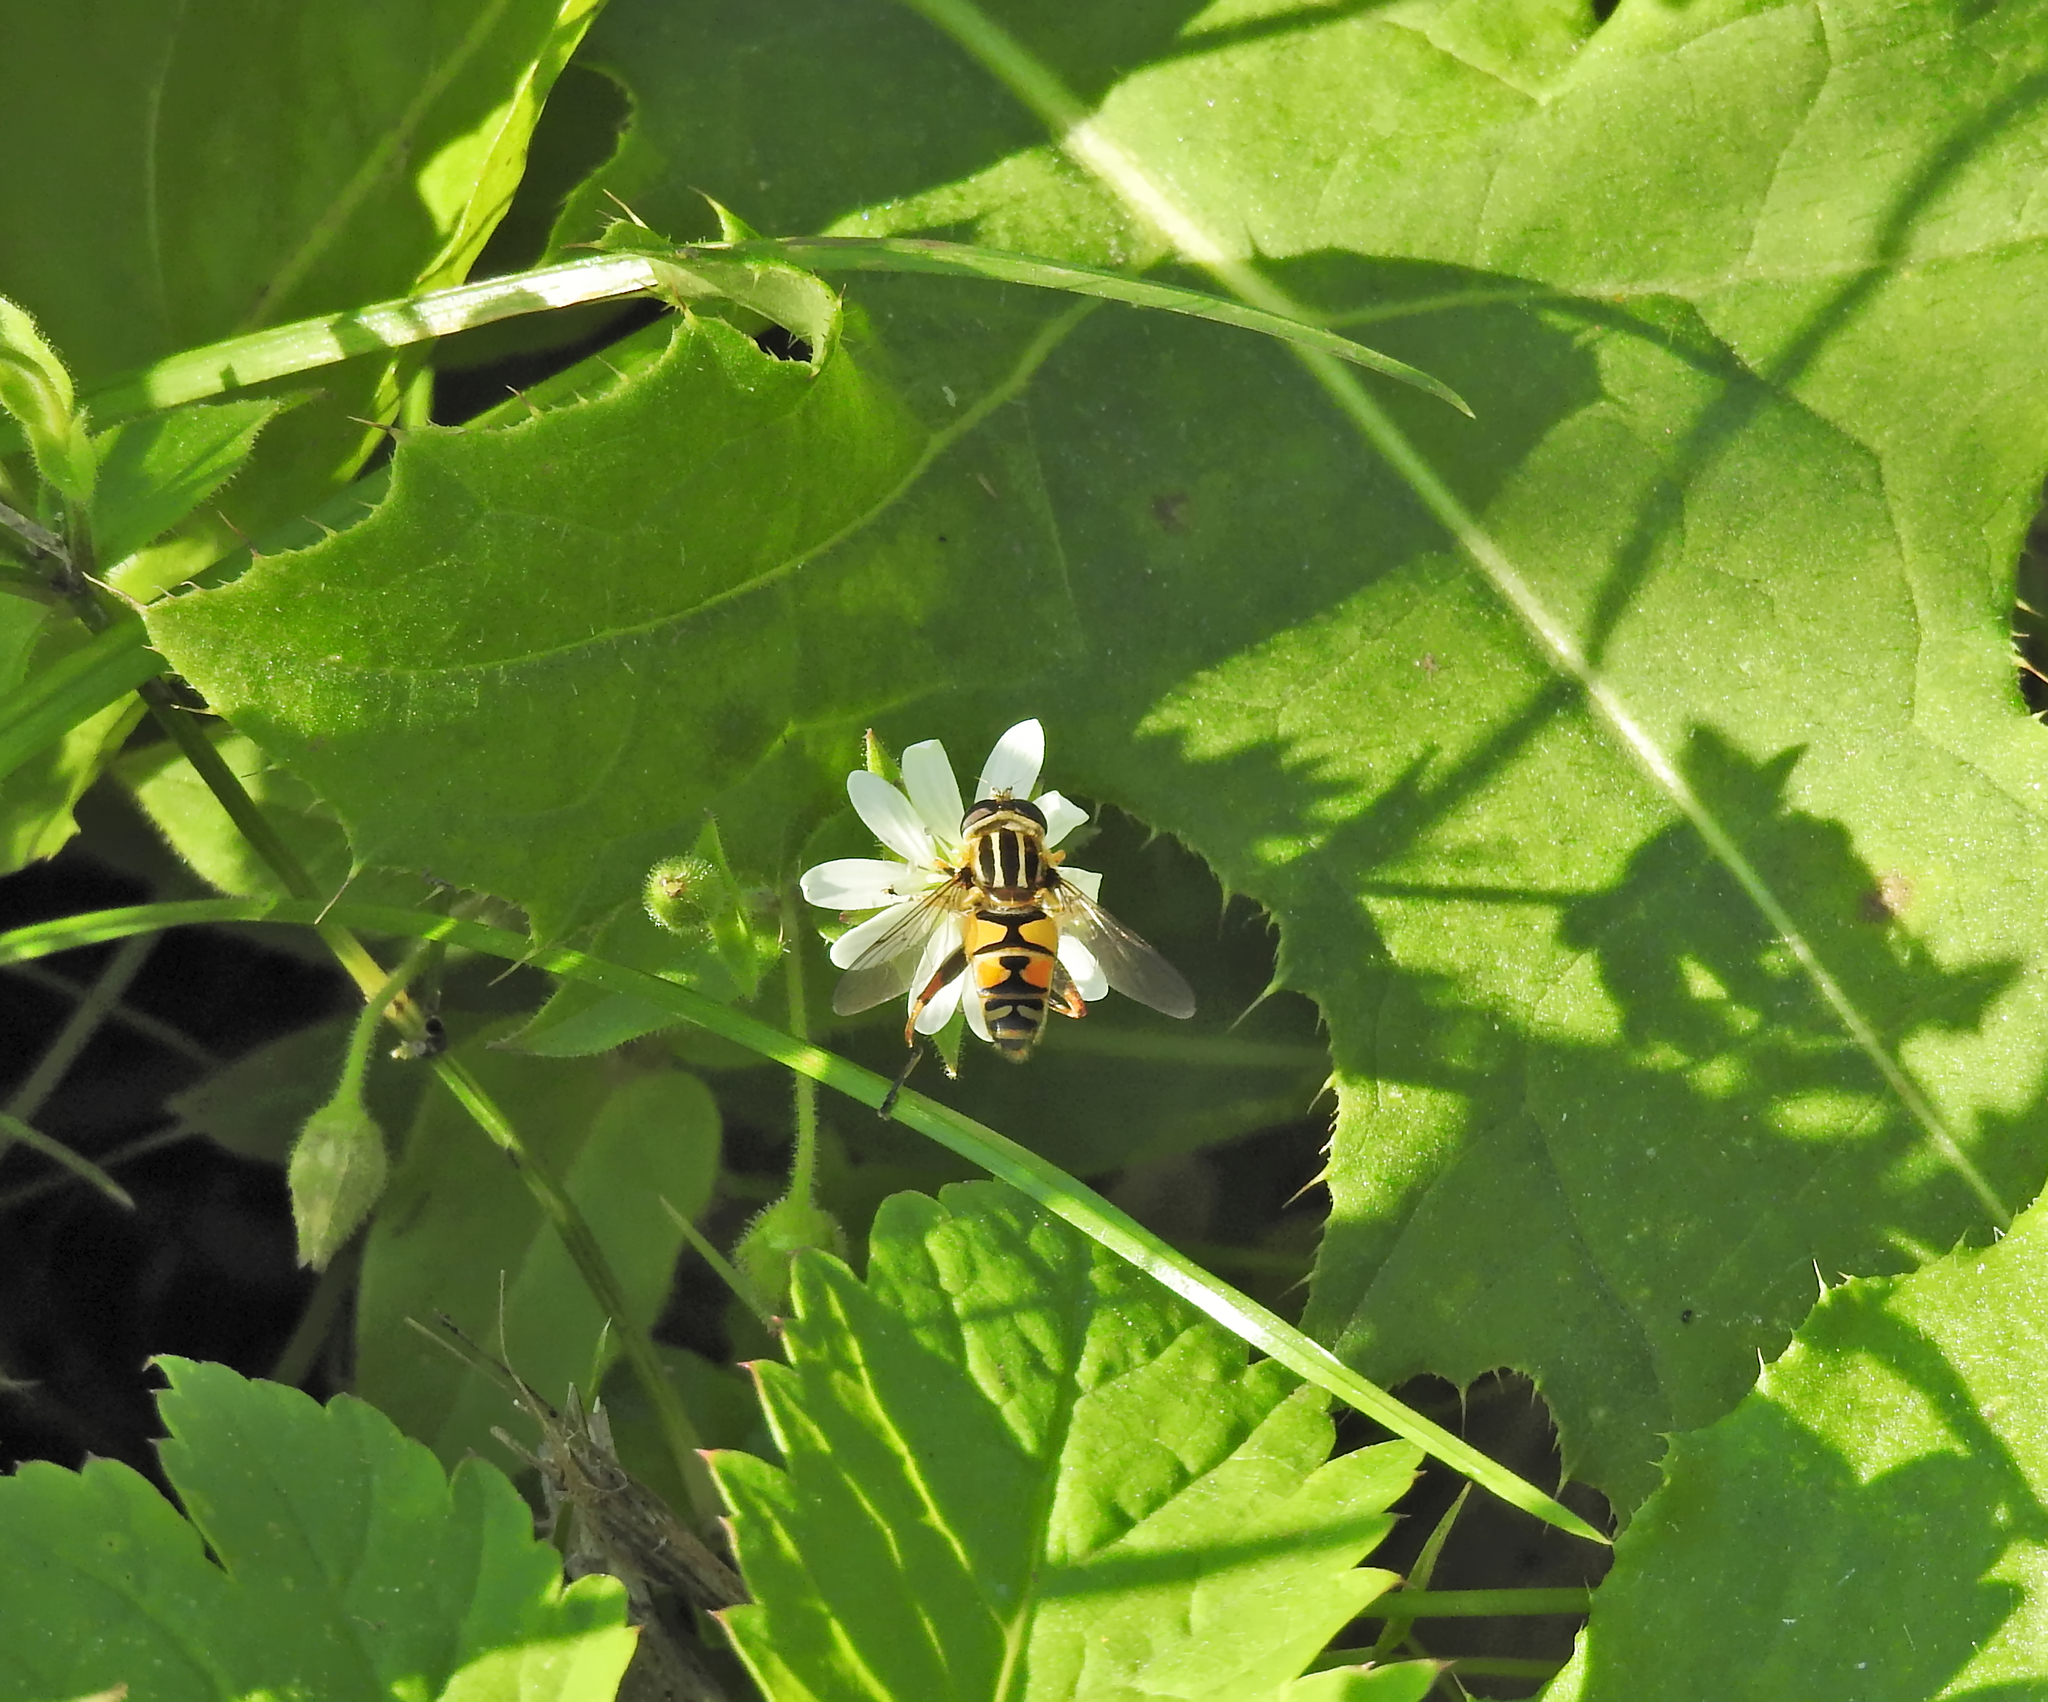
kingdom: Animalia
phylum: Arthropoda
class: Insecta
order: Diptera
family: Syrphidae
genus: Helophilus
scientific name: Helophilus pendulus
